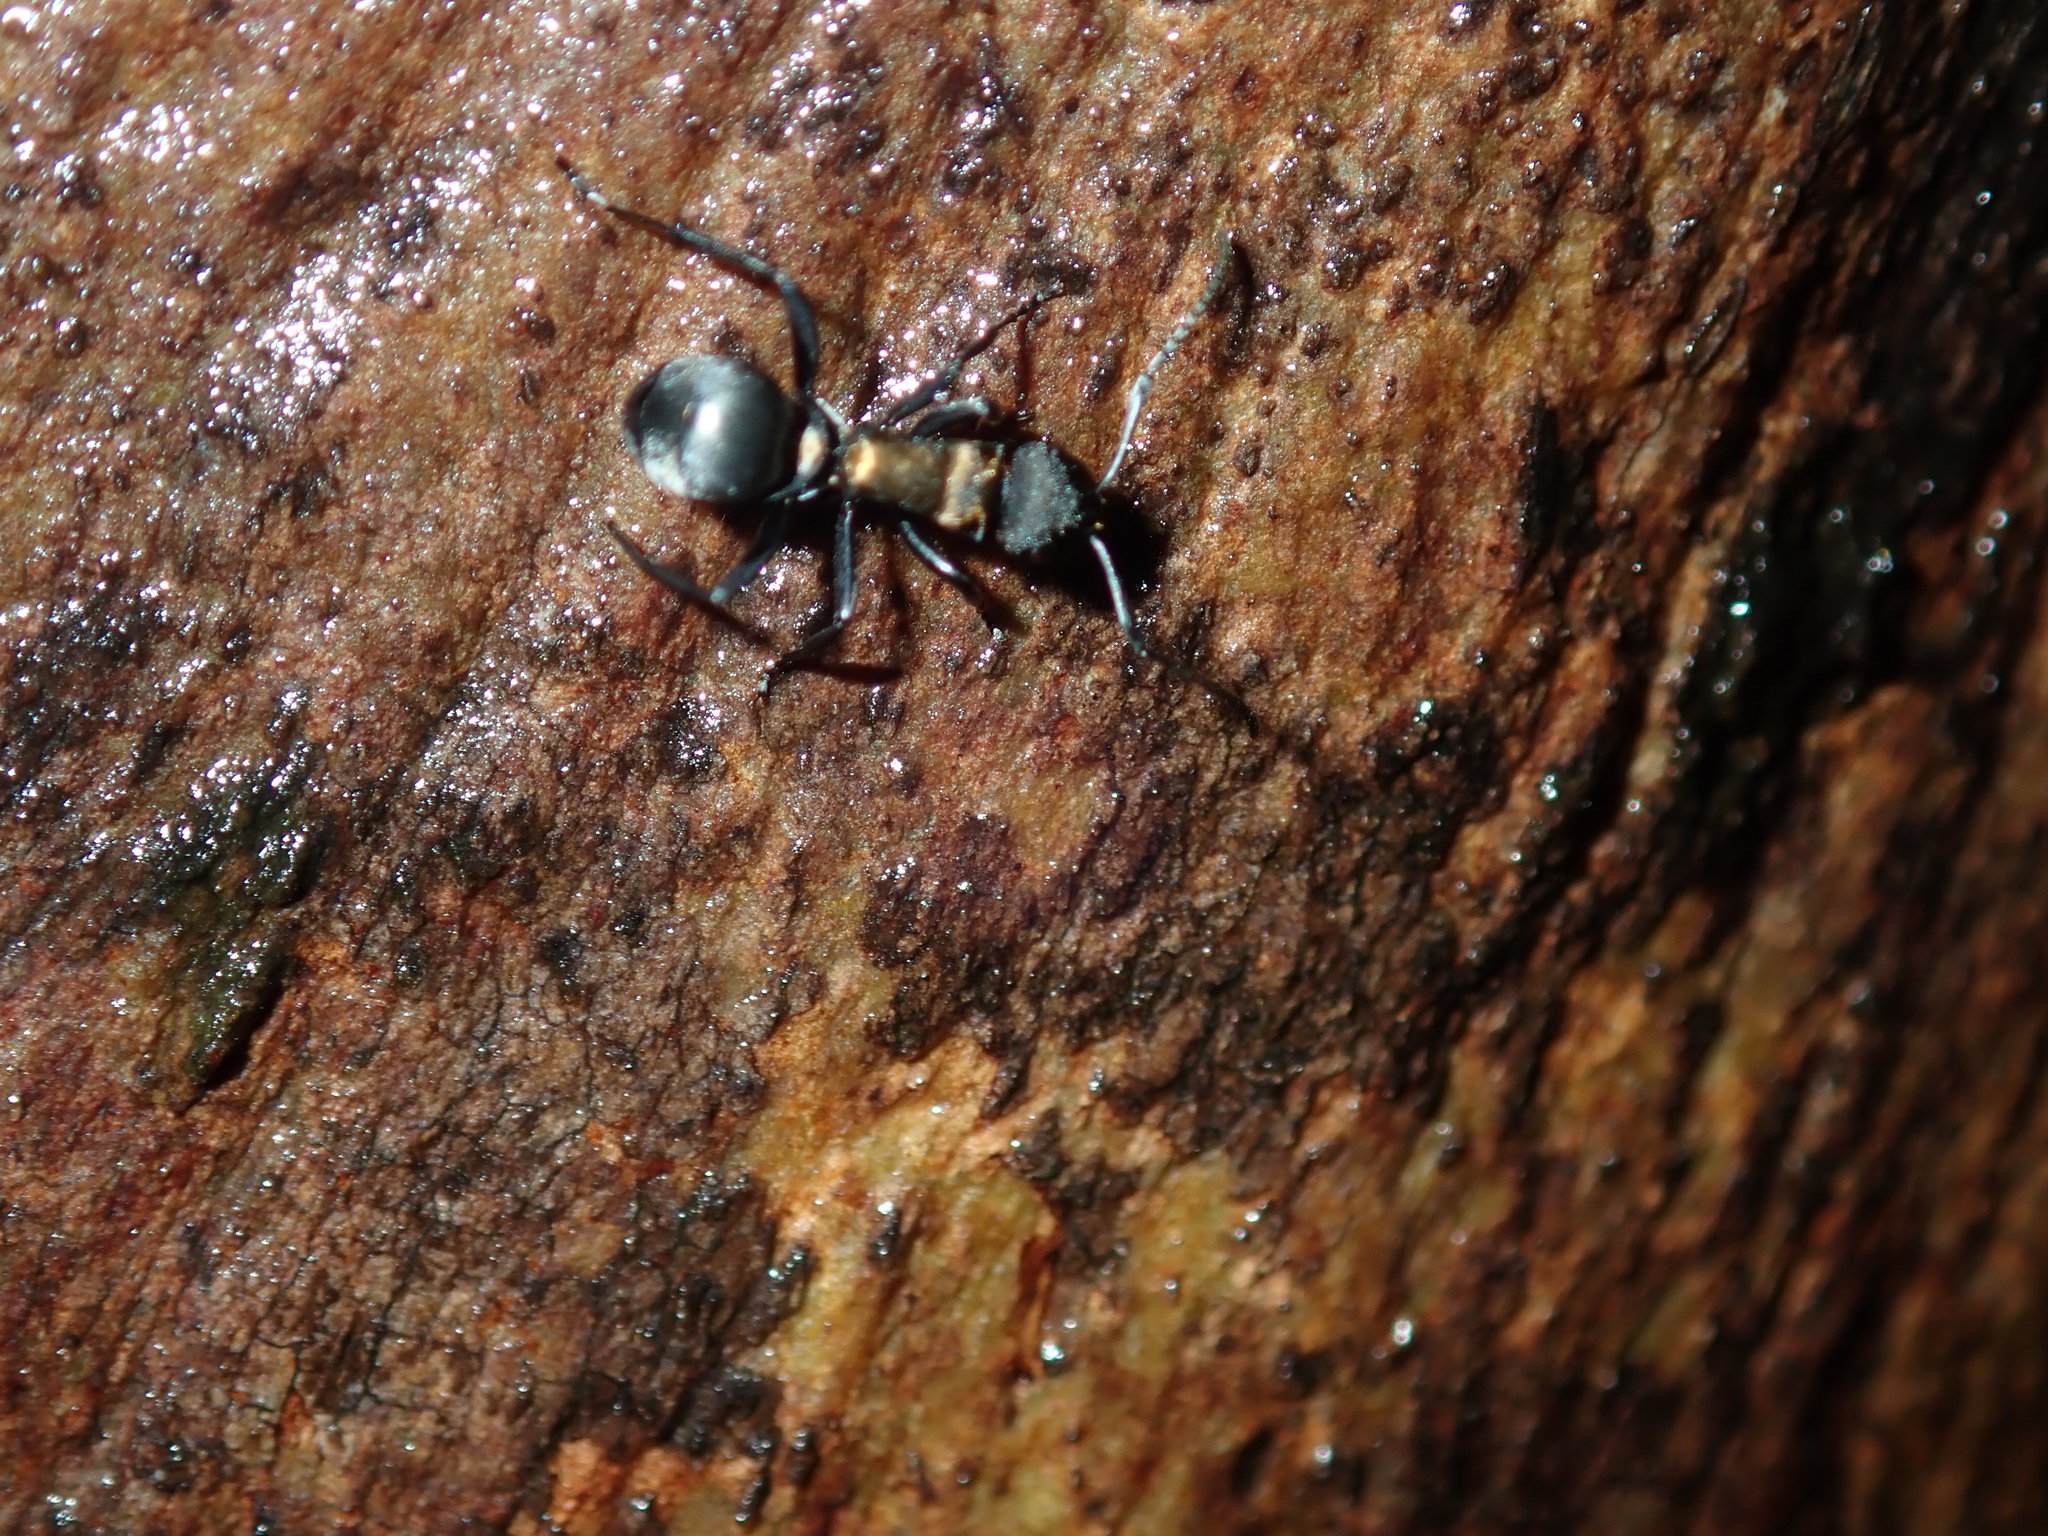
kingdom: Animalia
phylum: Arthropoda
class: Insecta
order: Hymenoptera
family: Formicidae
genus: Polyrhachis
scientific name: Polyrhachis ornata
